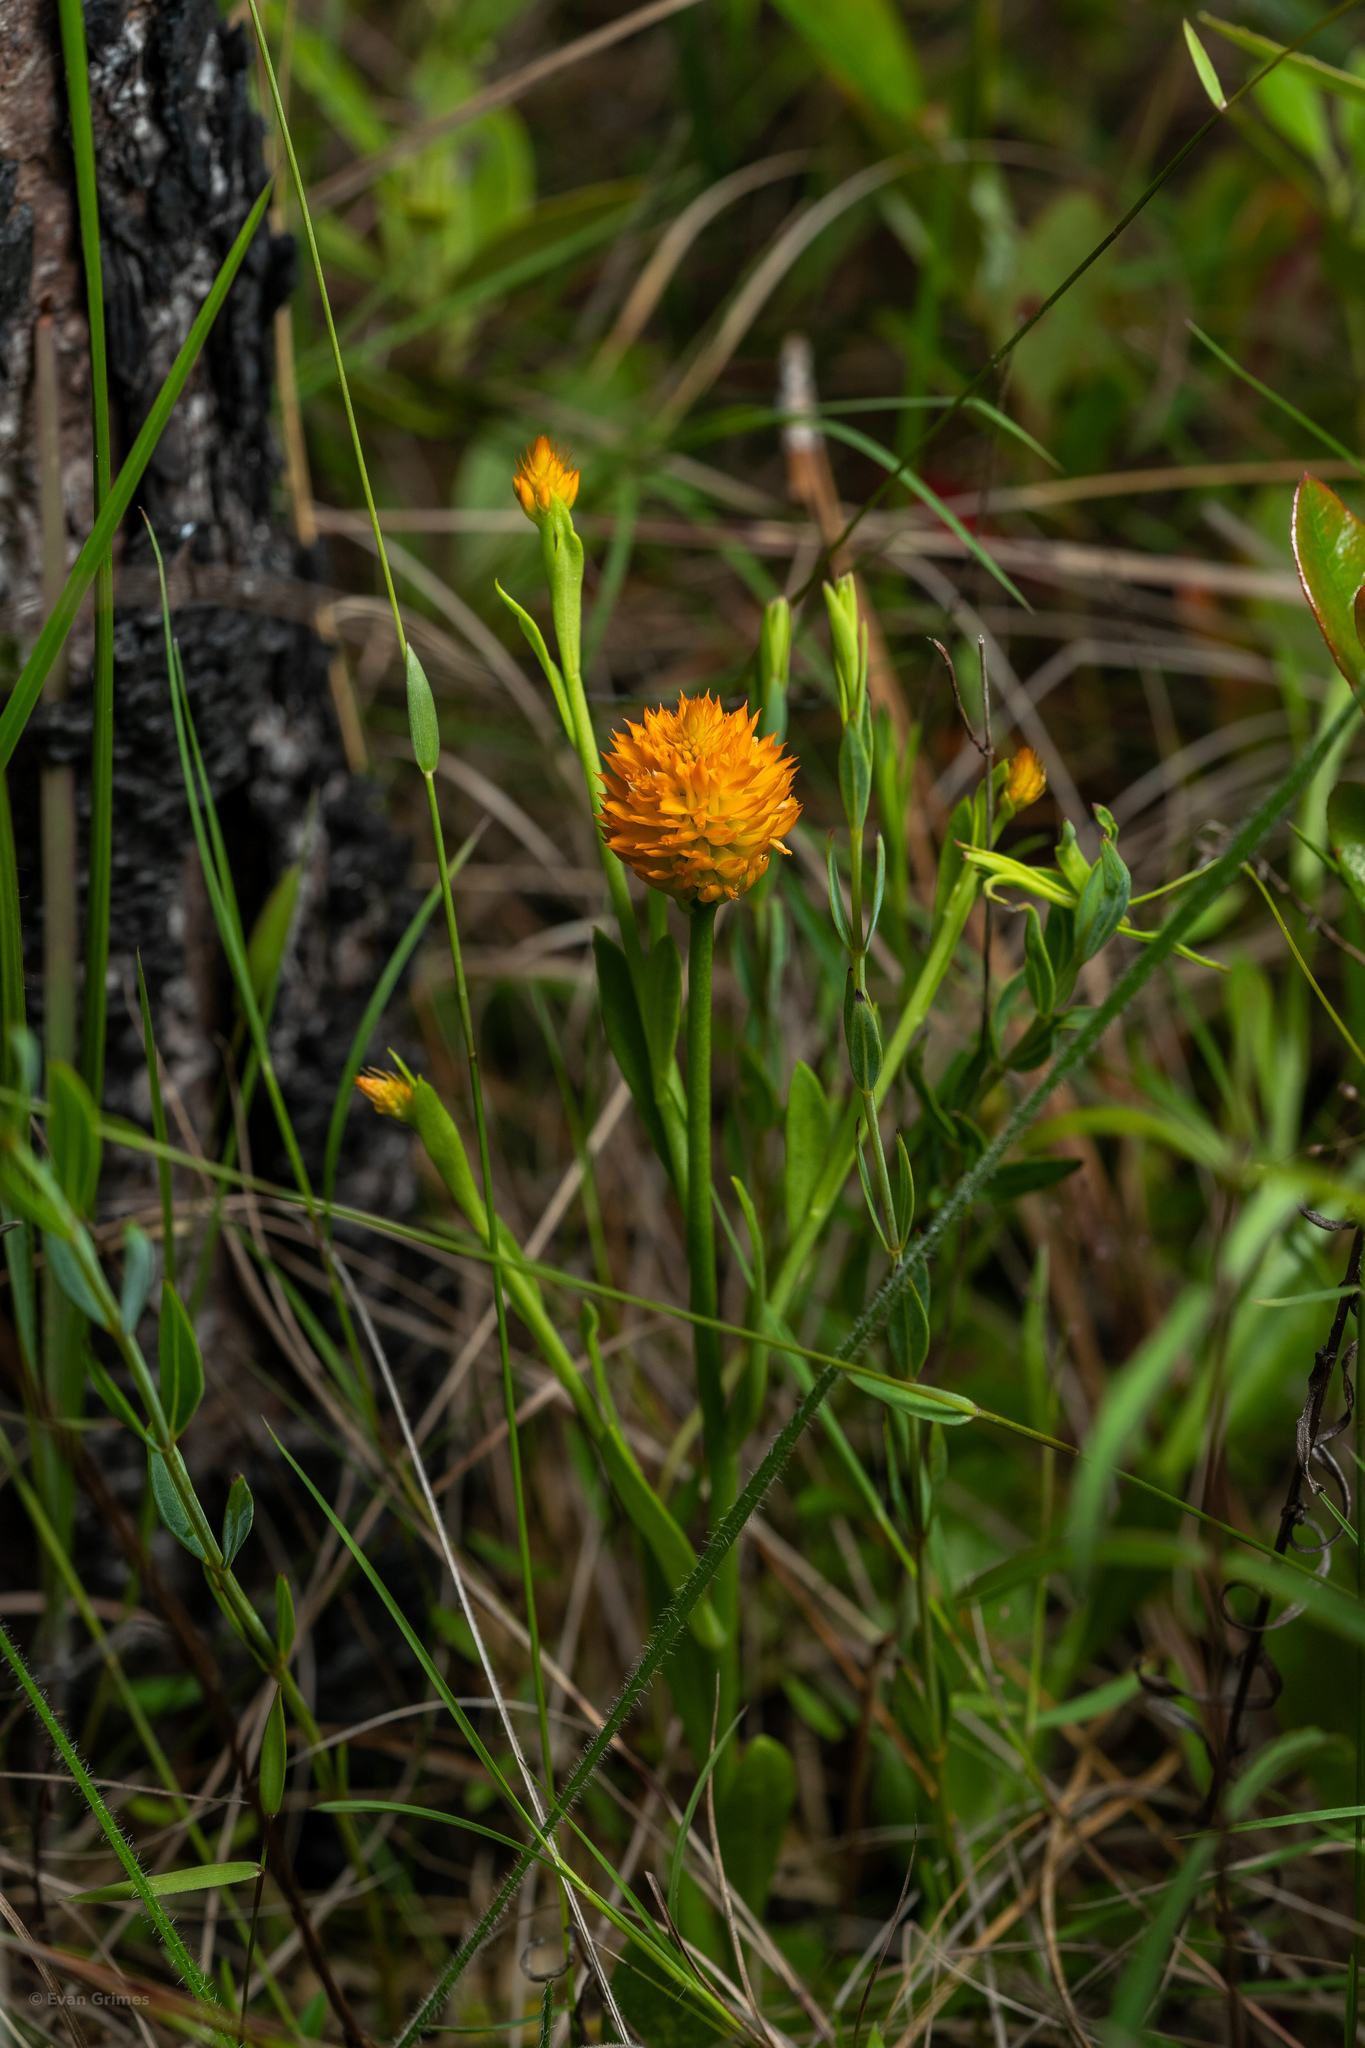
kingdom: Plantae
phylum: Tracheophyta
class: Magnoliopsida
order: Fabales
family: Polygalaceae
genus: Polygala
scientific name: Polygala lutea
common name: Orange milkwort
